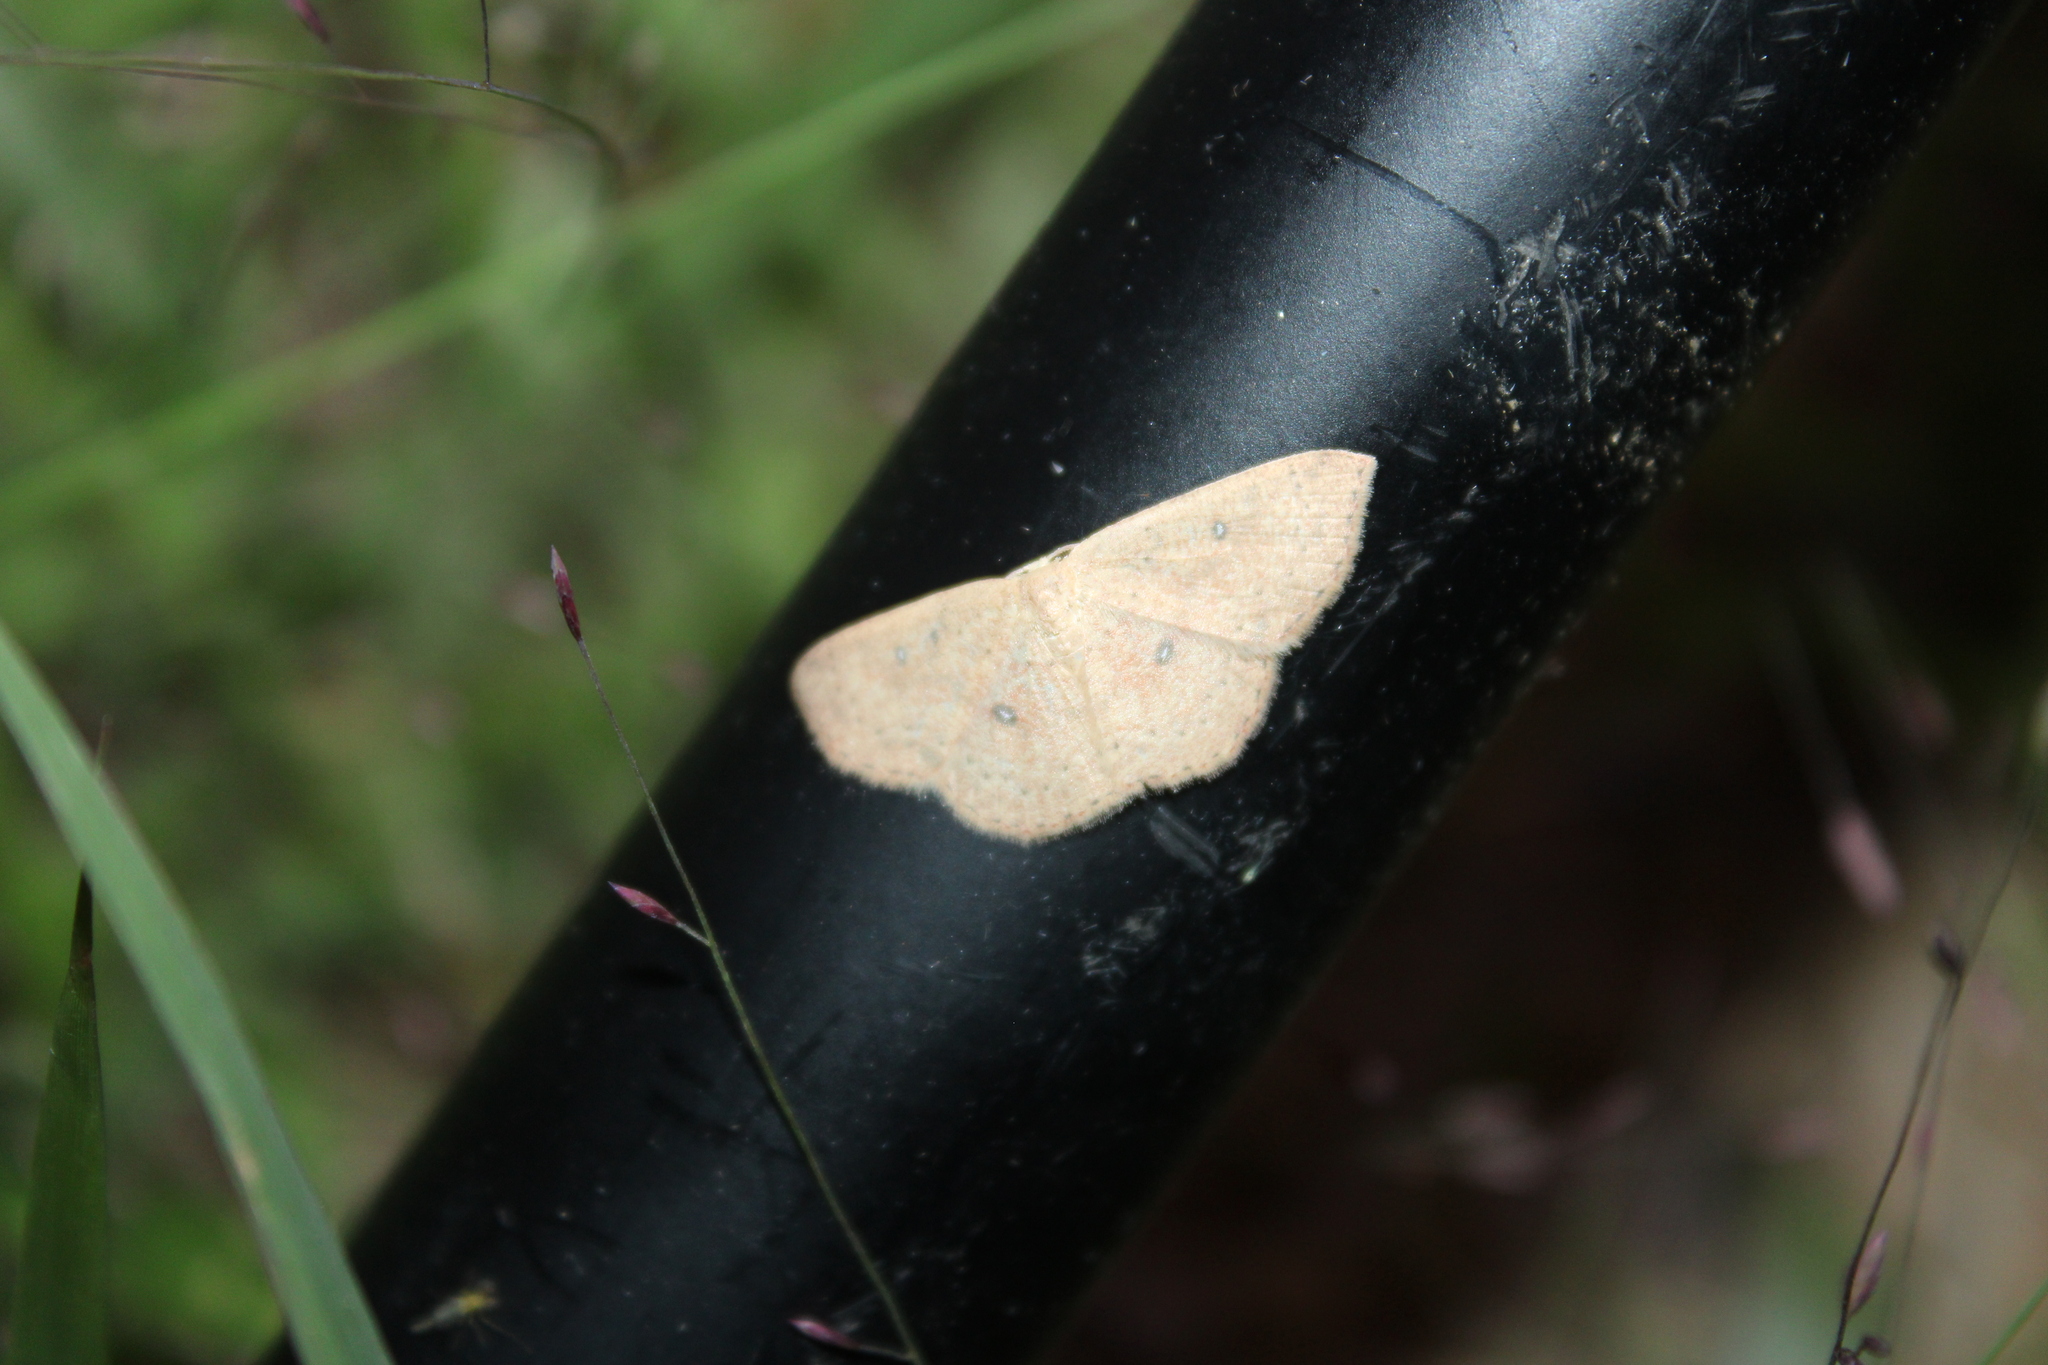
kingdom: Animalia
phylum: Arthropoda
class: Insecta
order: Lepidoptera
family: Geometridae
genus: Cyclophora
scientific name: Cyclophora packardi
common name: Packard's wave
